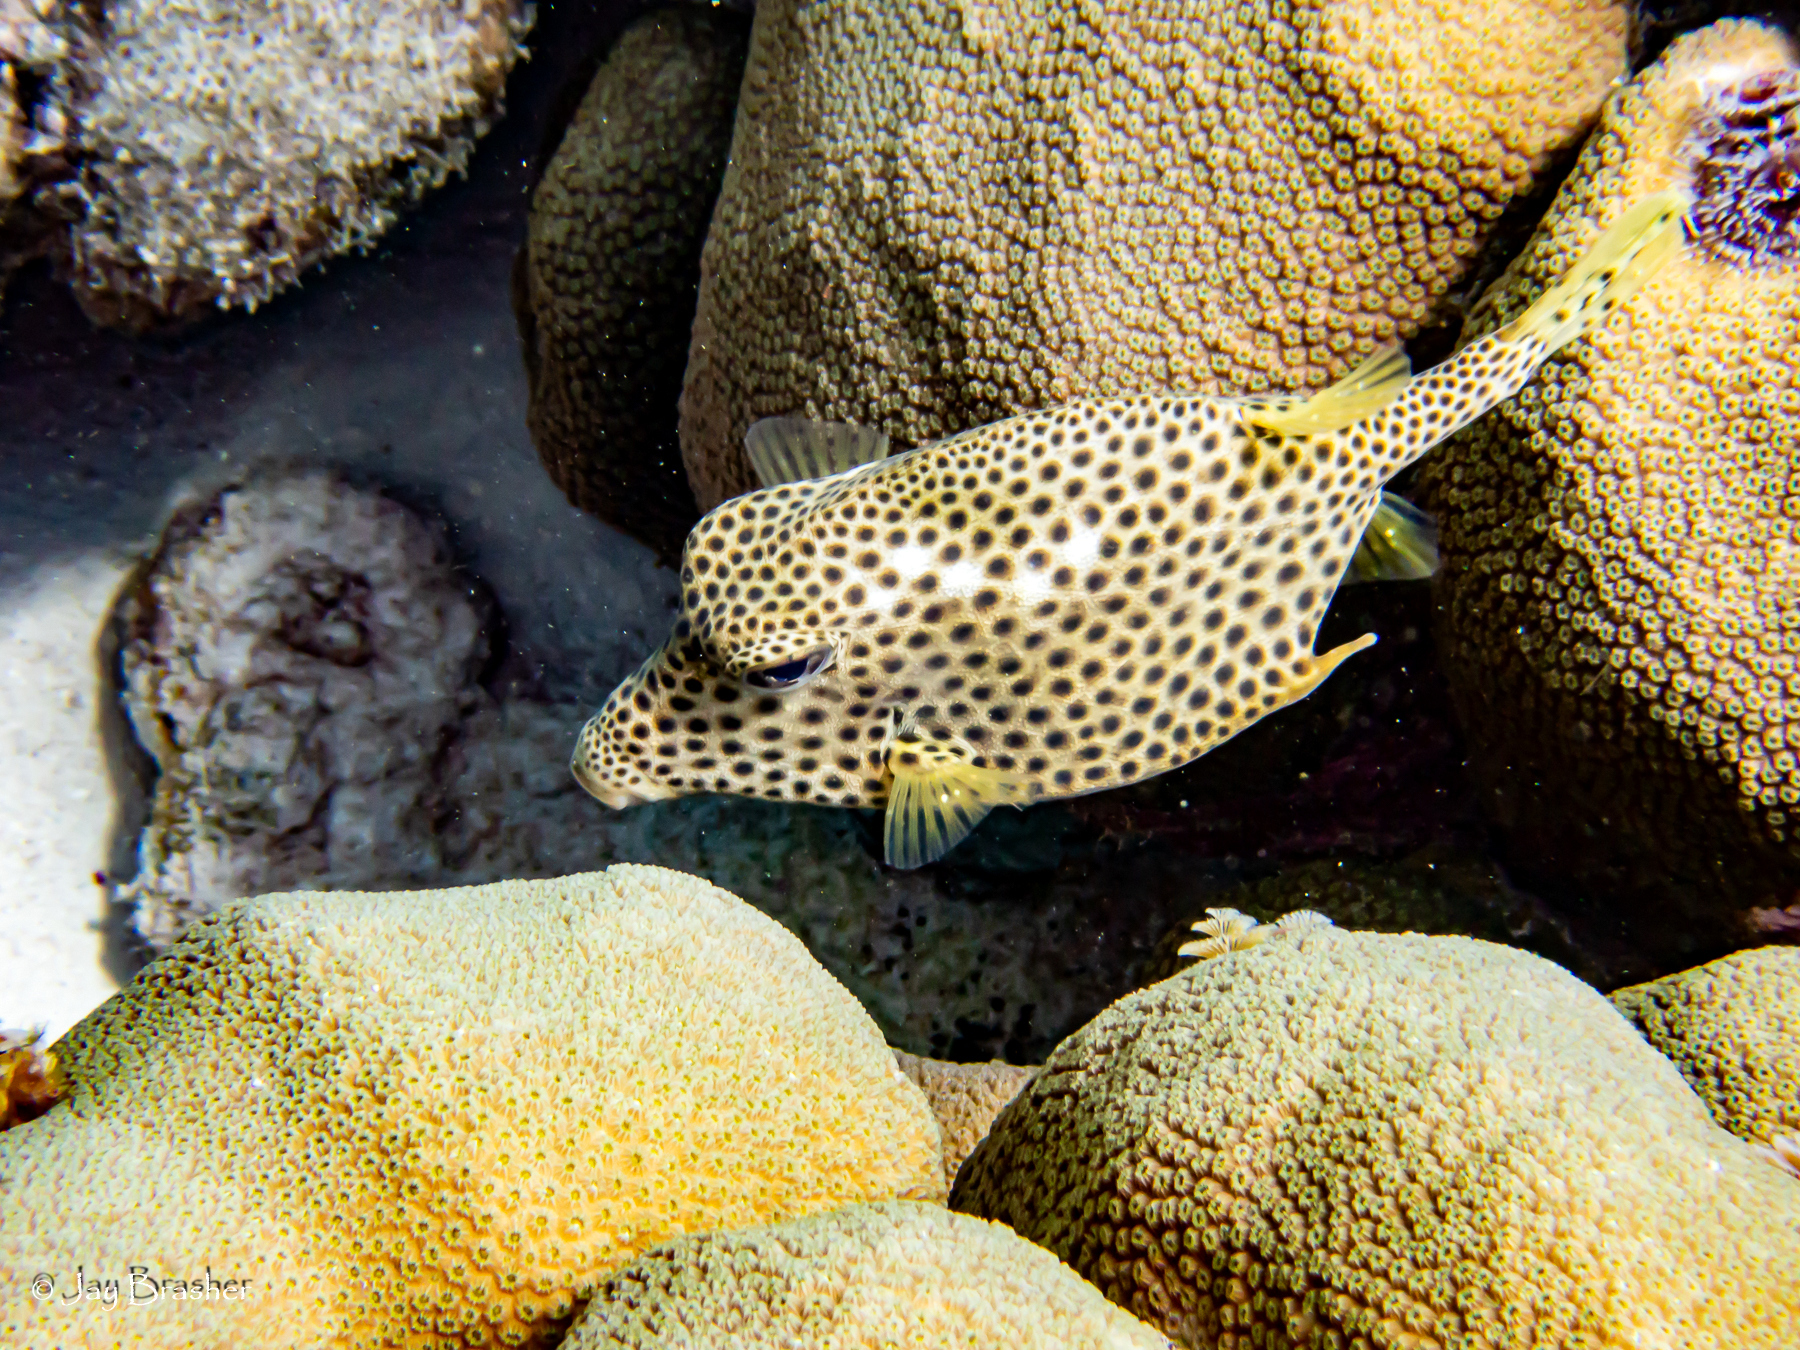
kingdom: Animalia
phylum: Chordata
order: Tetraodontiformes
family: Ostraciidae
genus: Lactophrys
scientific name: Lactophrys bicaudalis
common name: Spotted trunkfish
